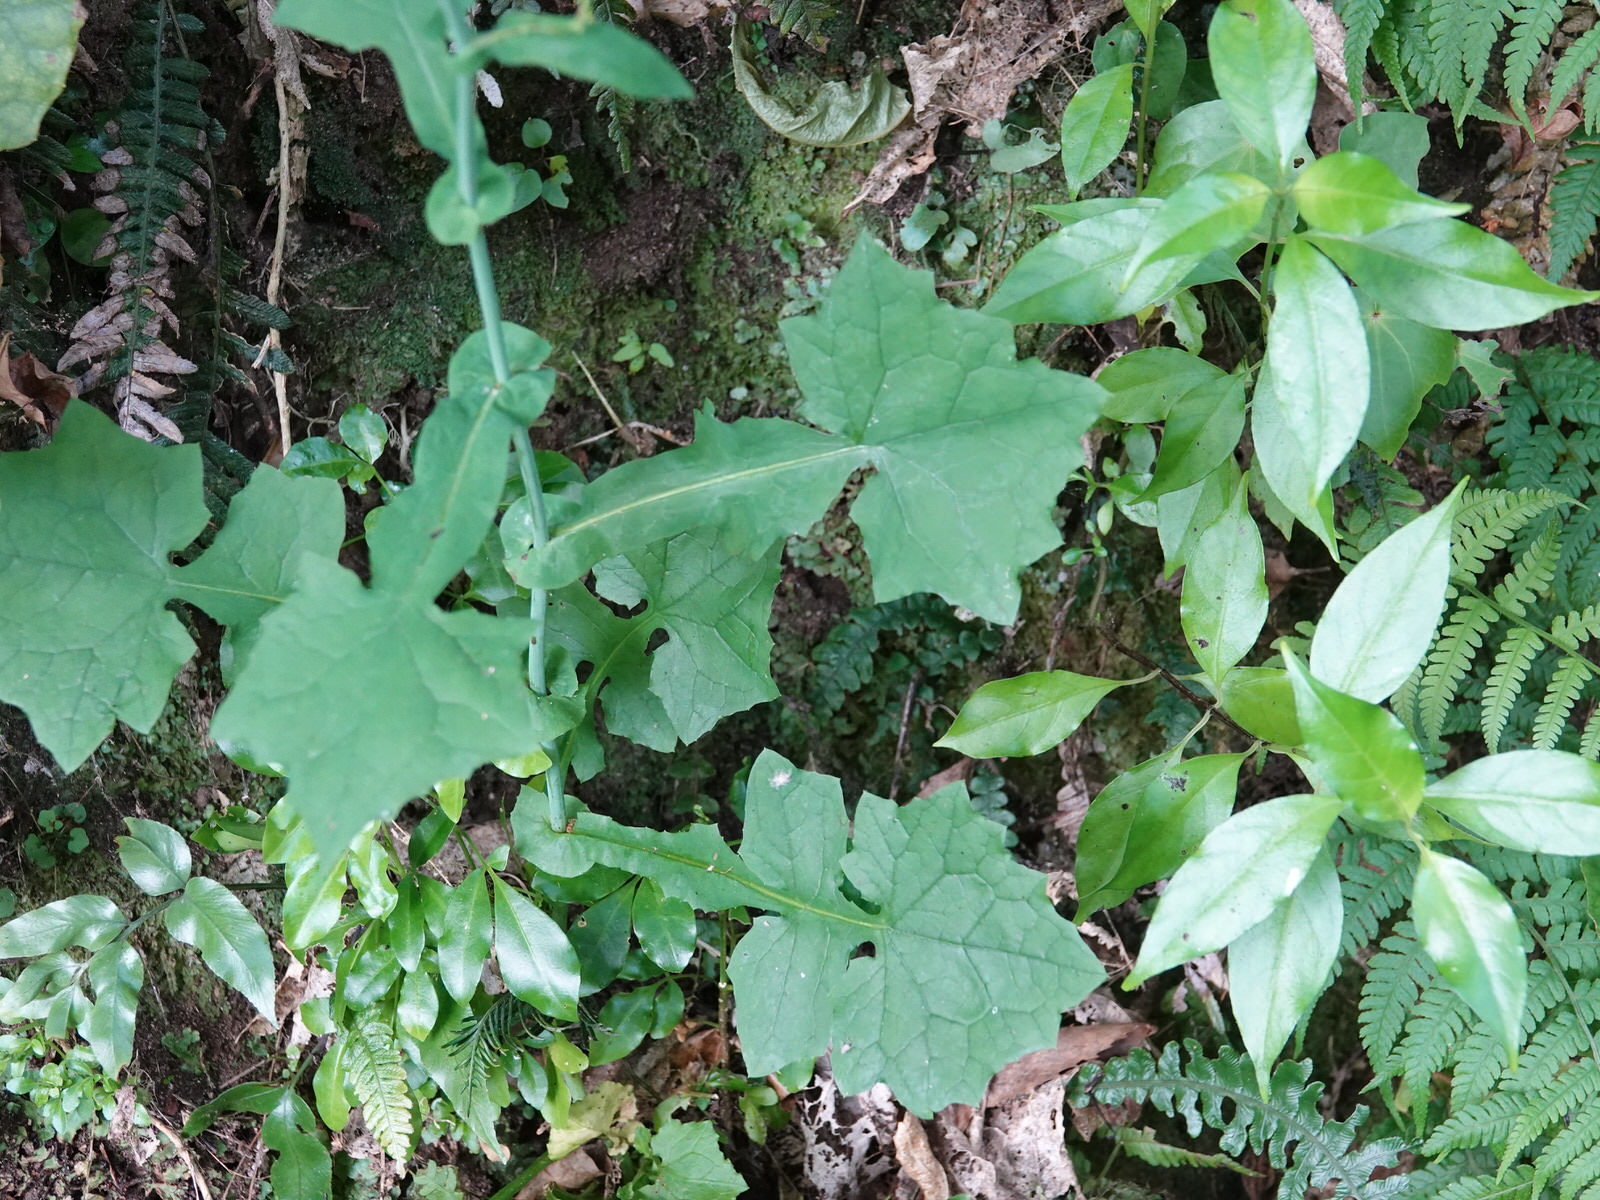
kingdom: Plantae
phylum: Tracheophyta
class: Magnoliopsida
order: Asterales
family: Asteraceae
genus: Mycelis
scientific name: Mycelis muralis
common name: Wall lettuce
